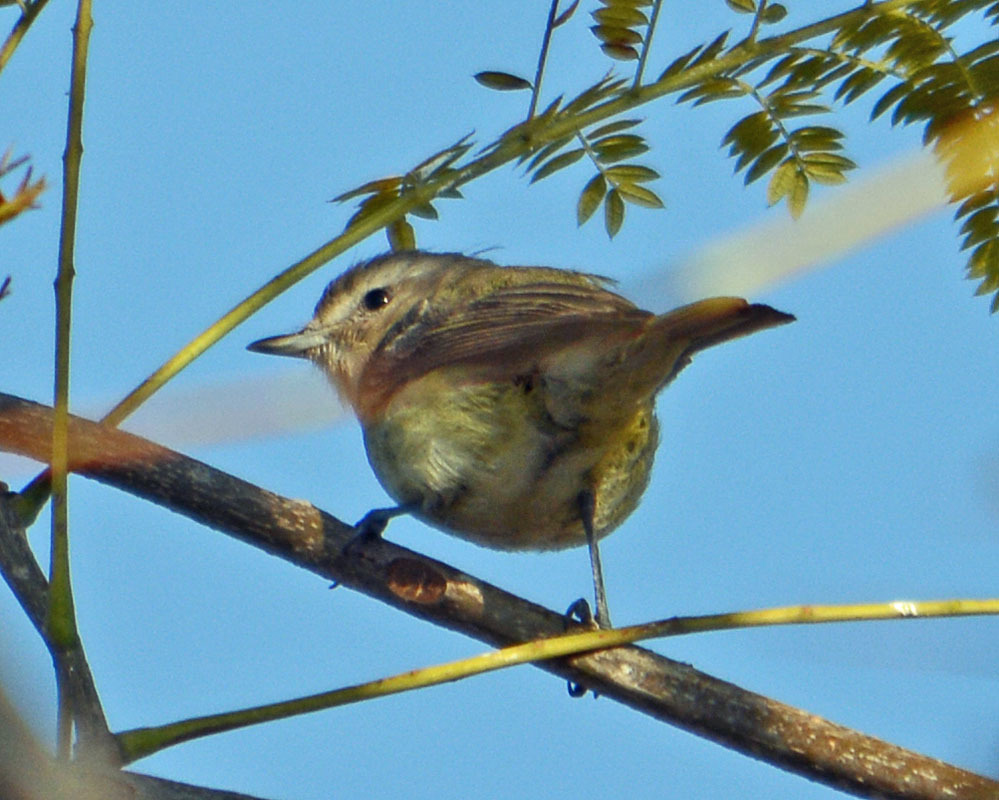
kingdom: Animalia
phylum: Chordata
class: Aves
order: Passeriformes
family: Vireonidae
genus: Vireo
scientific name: Vireo gilvus
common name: Warbling vireo
